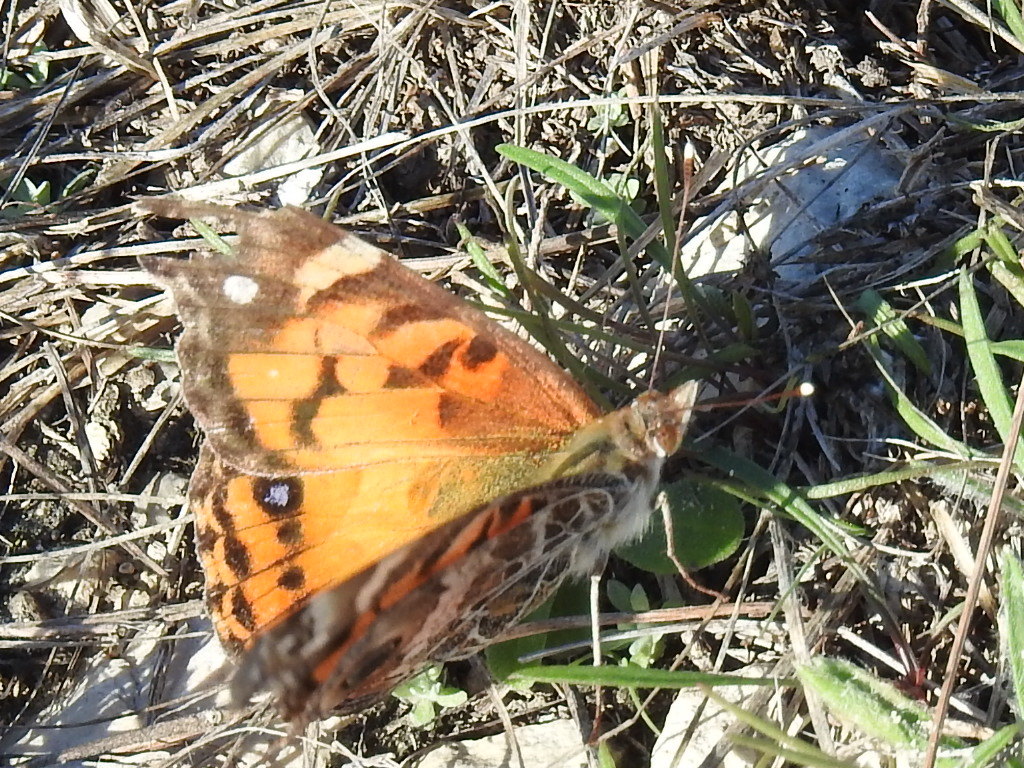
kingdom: Animalia
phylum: Arthropoda
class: Insecta
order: Lepidoptera
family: Nymphalidae
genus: Vanessa
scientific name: Vanessa virginiensis
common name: American lady
